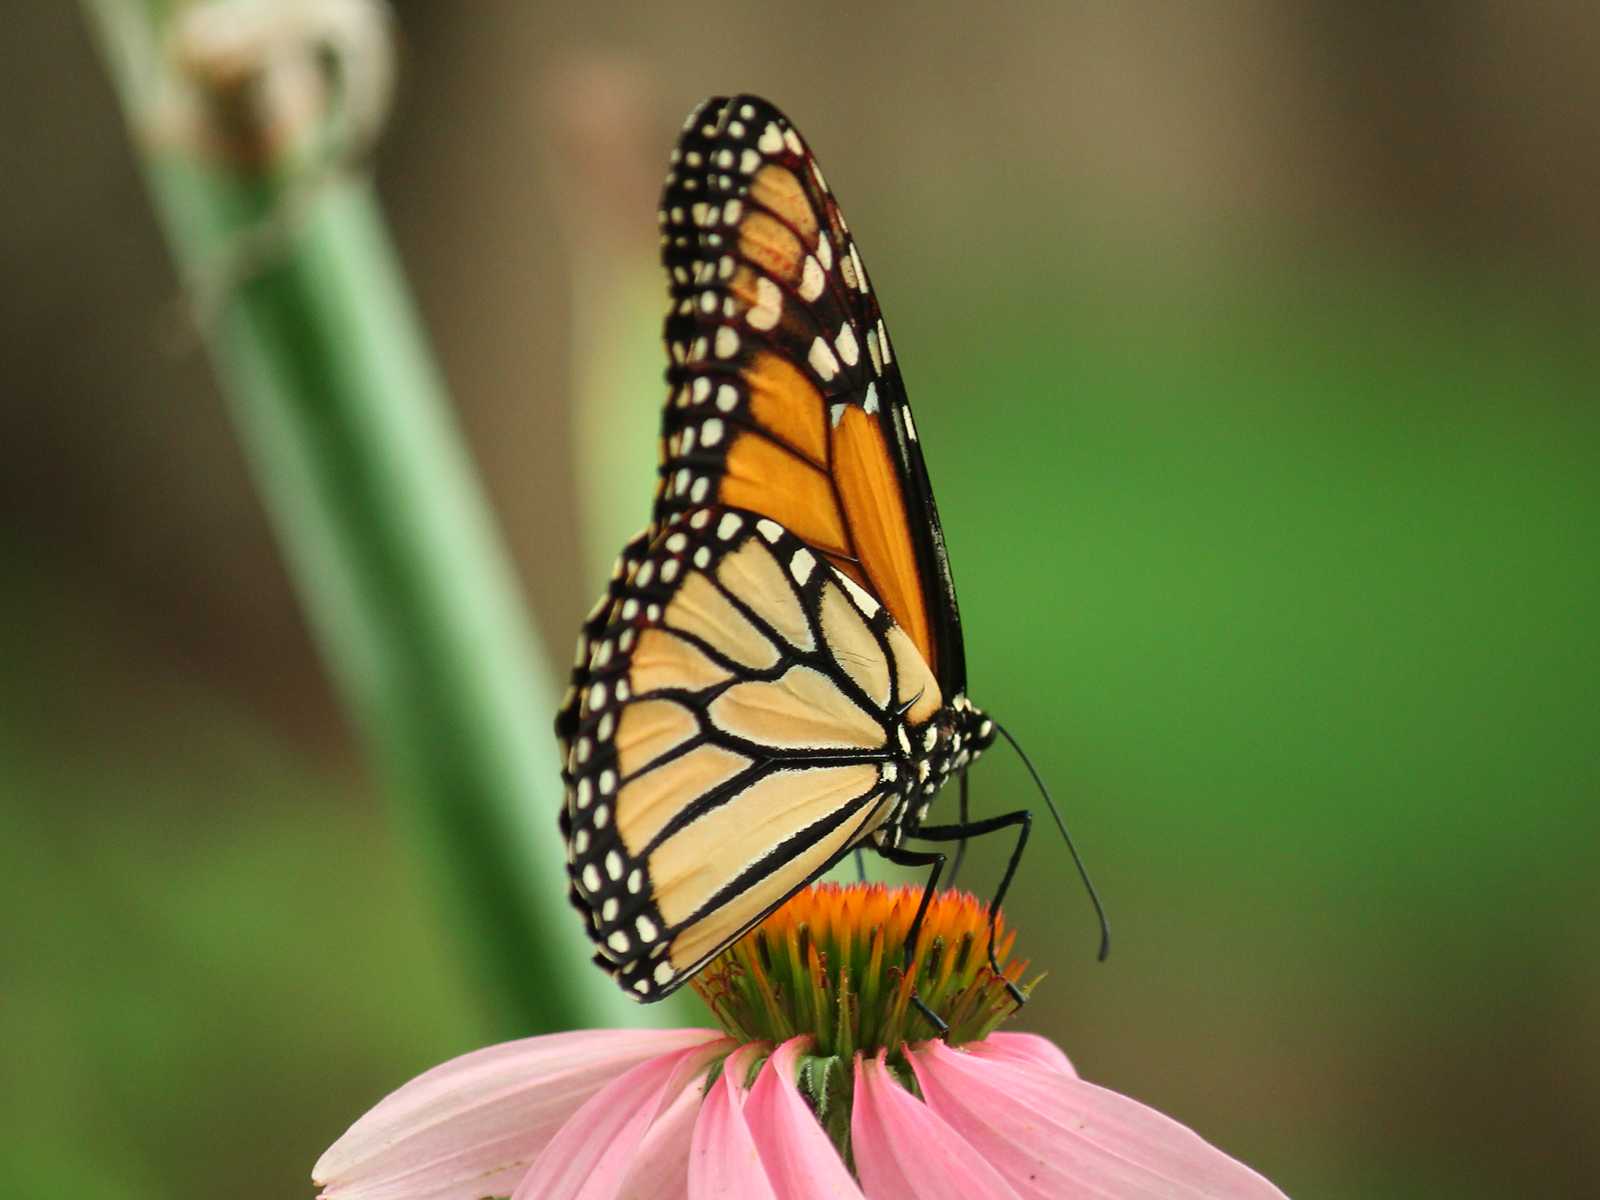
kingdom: Animalia
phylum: Arthropoda
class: Insecta
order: Lepidoptera
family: Nymphalidae
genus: Danaus
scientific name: Danaus plexippus
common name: Monarch
